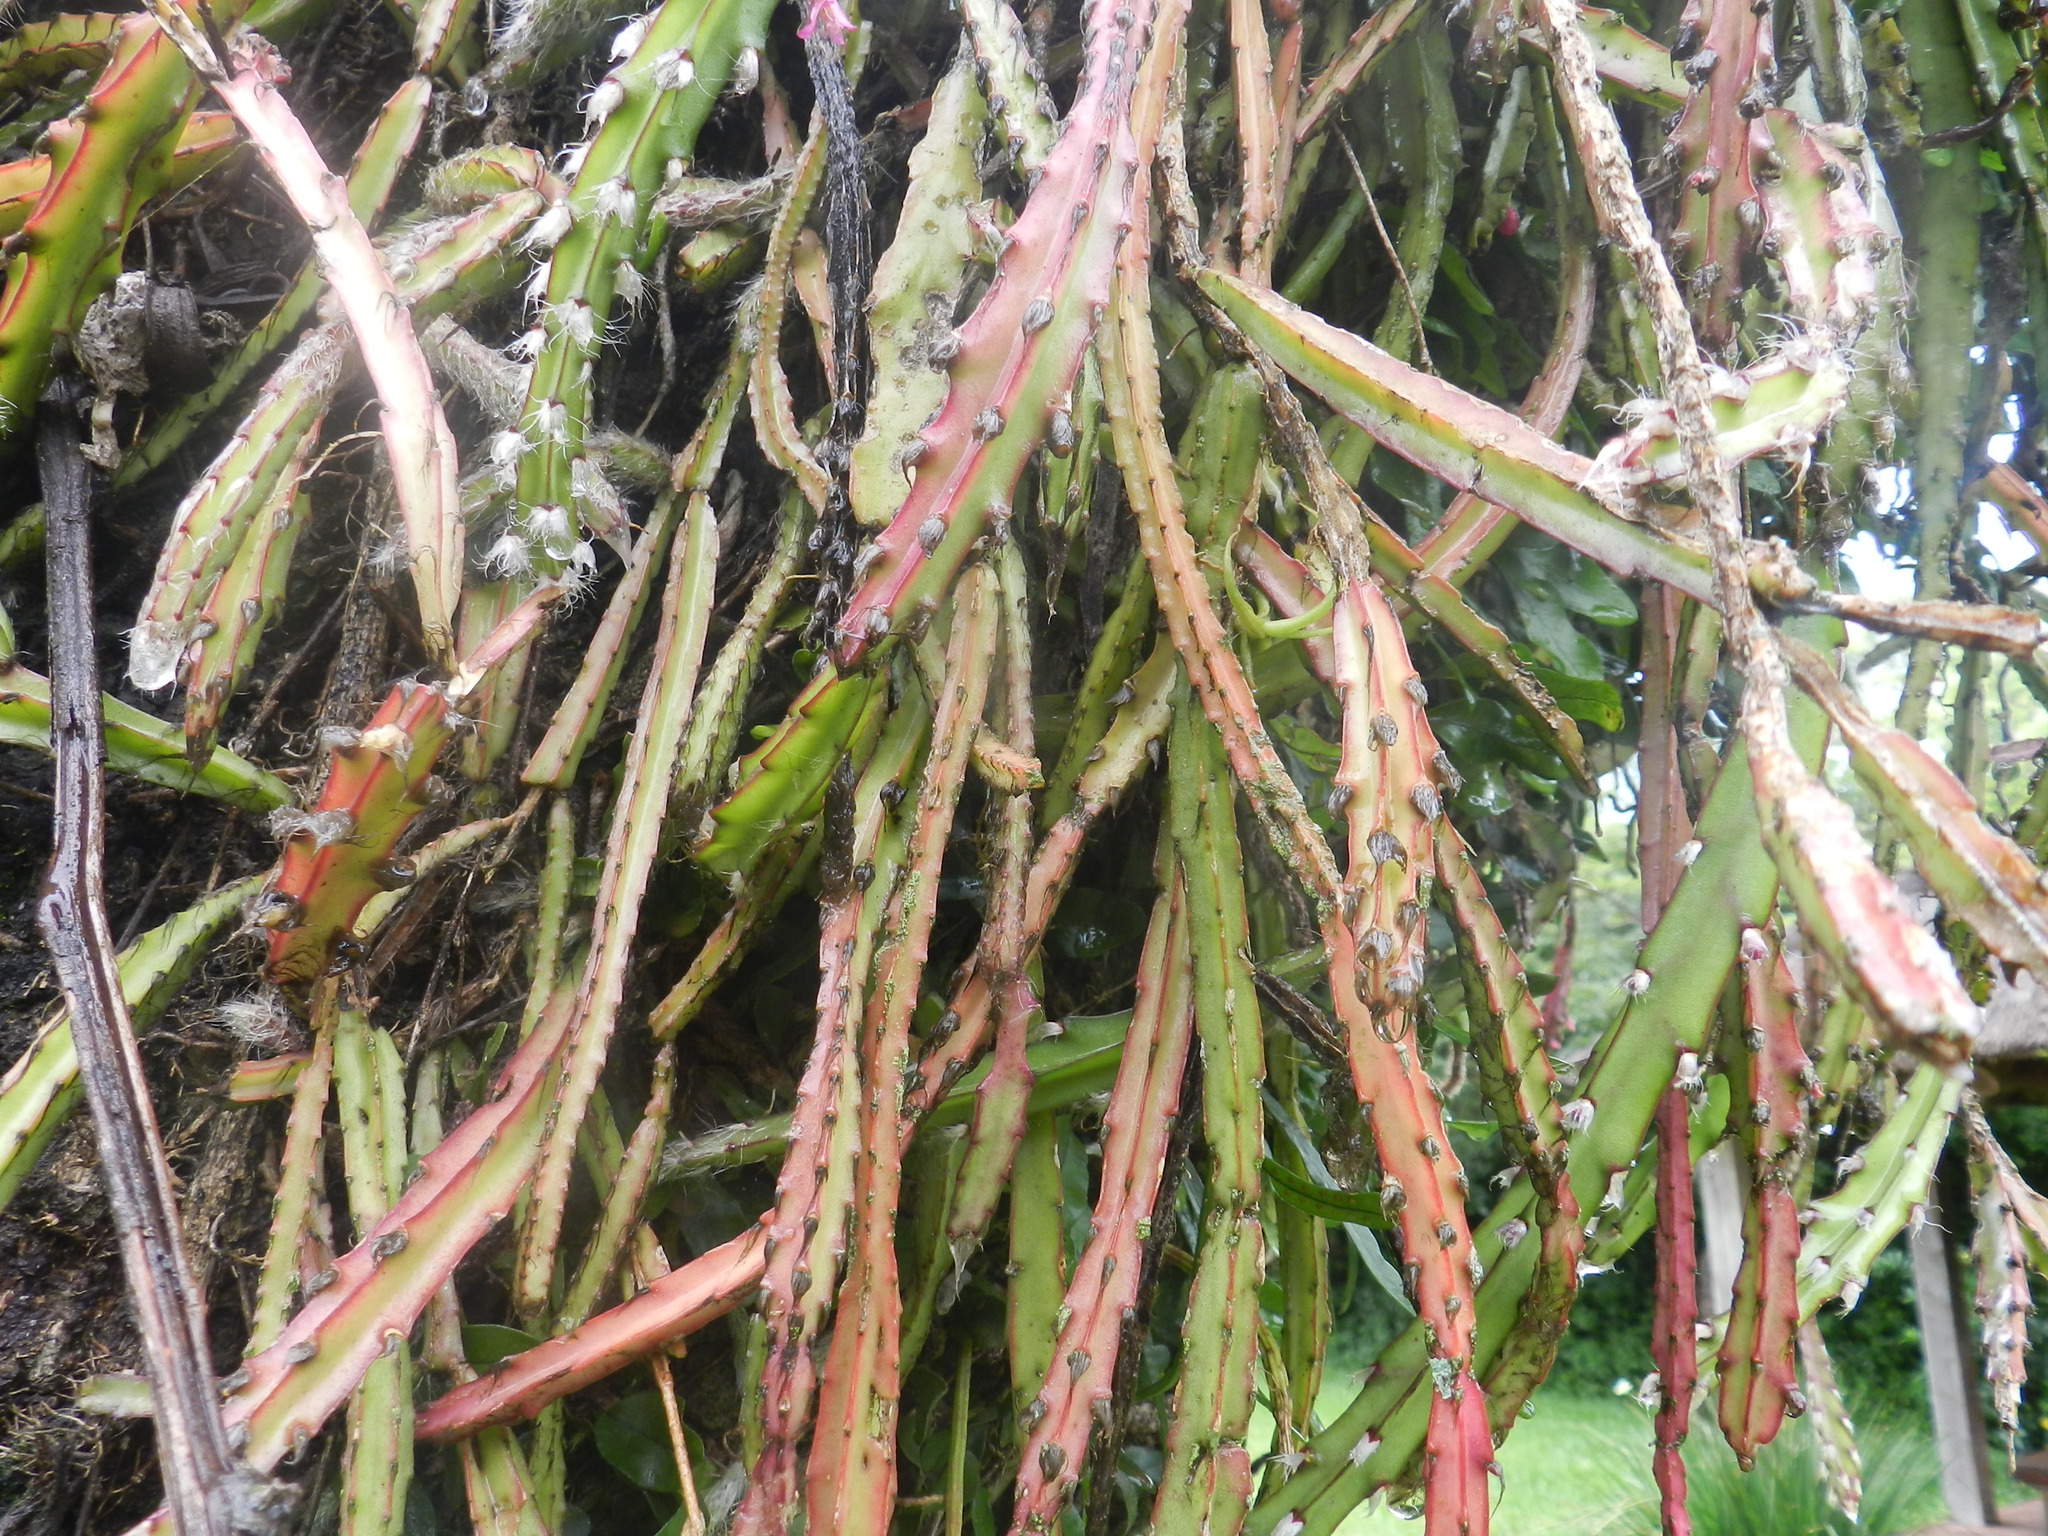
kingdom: Plantae
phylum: Tracheophyta
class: Magnoliopsida
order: Caryophyllales
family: Cactaceae
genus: Lepismium
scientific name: Lepismium cruciforme
